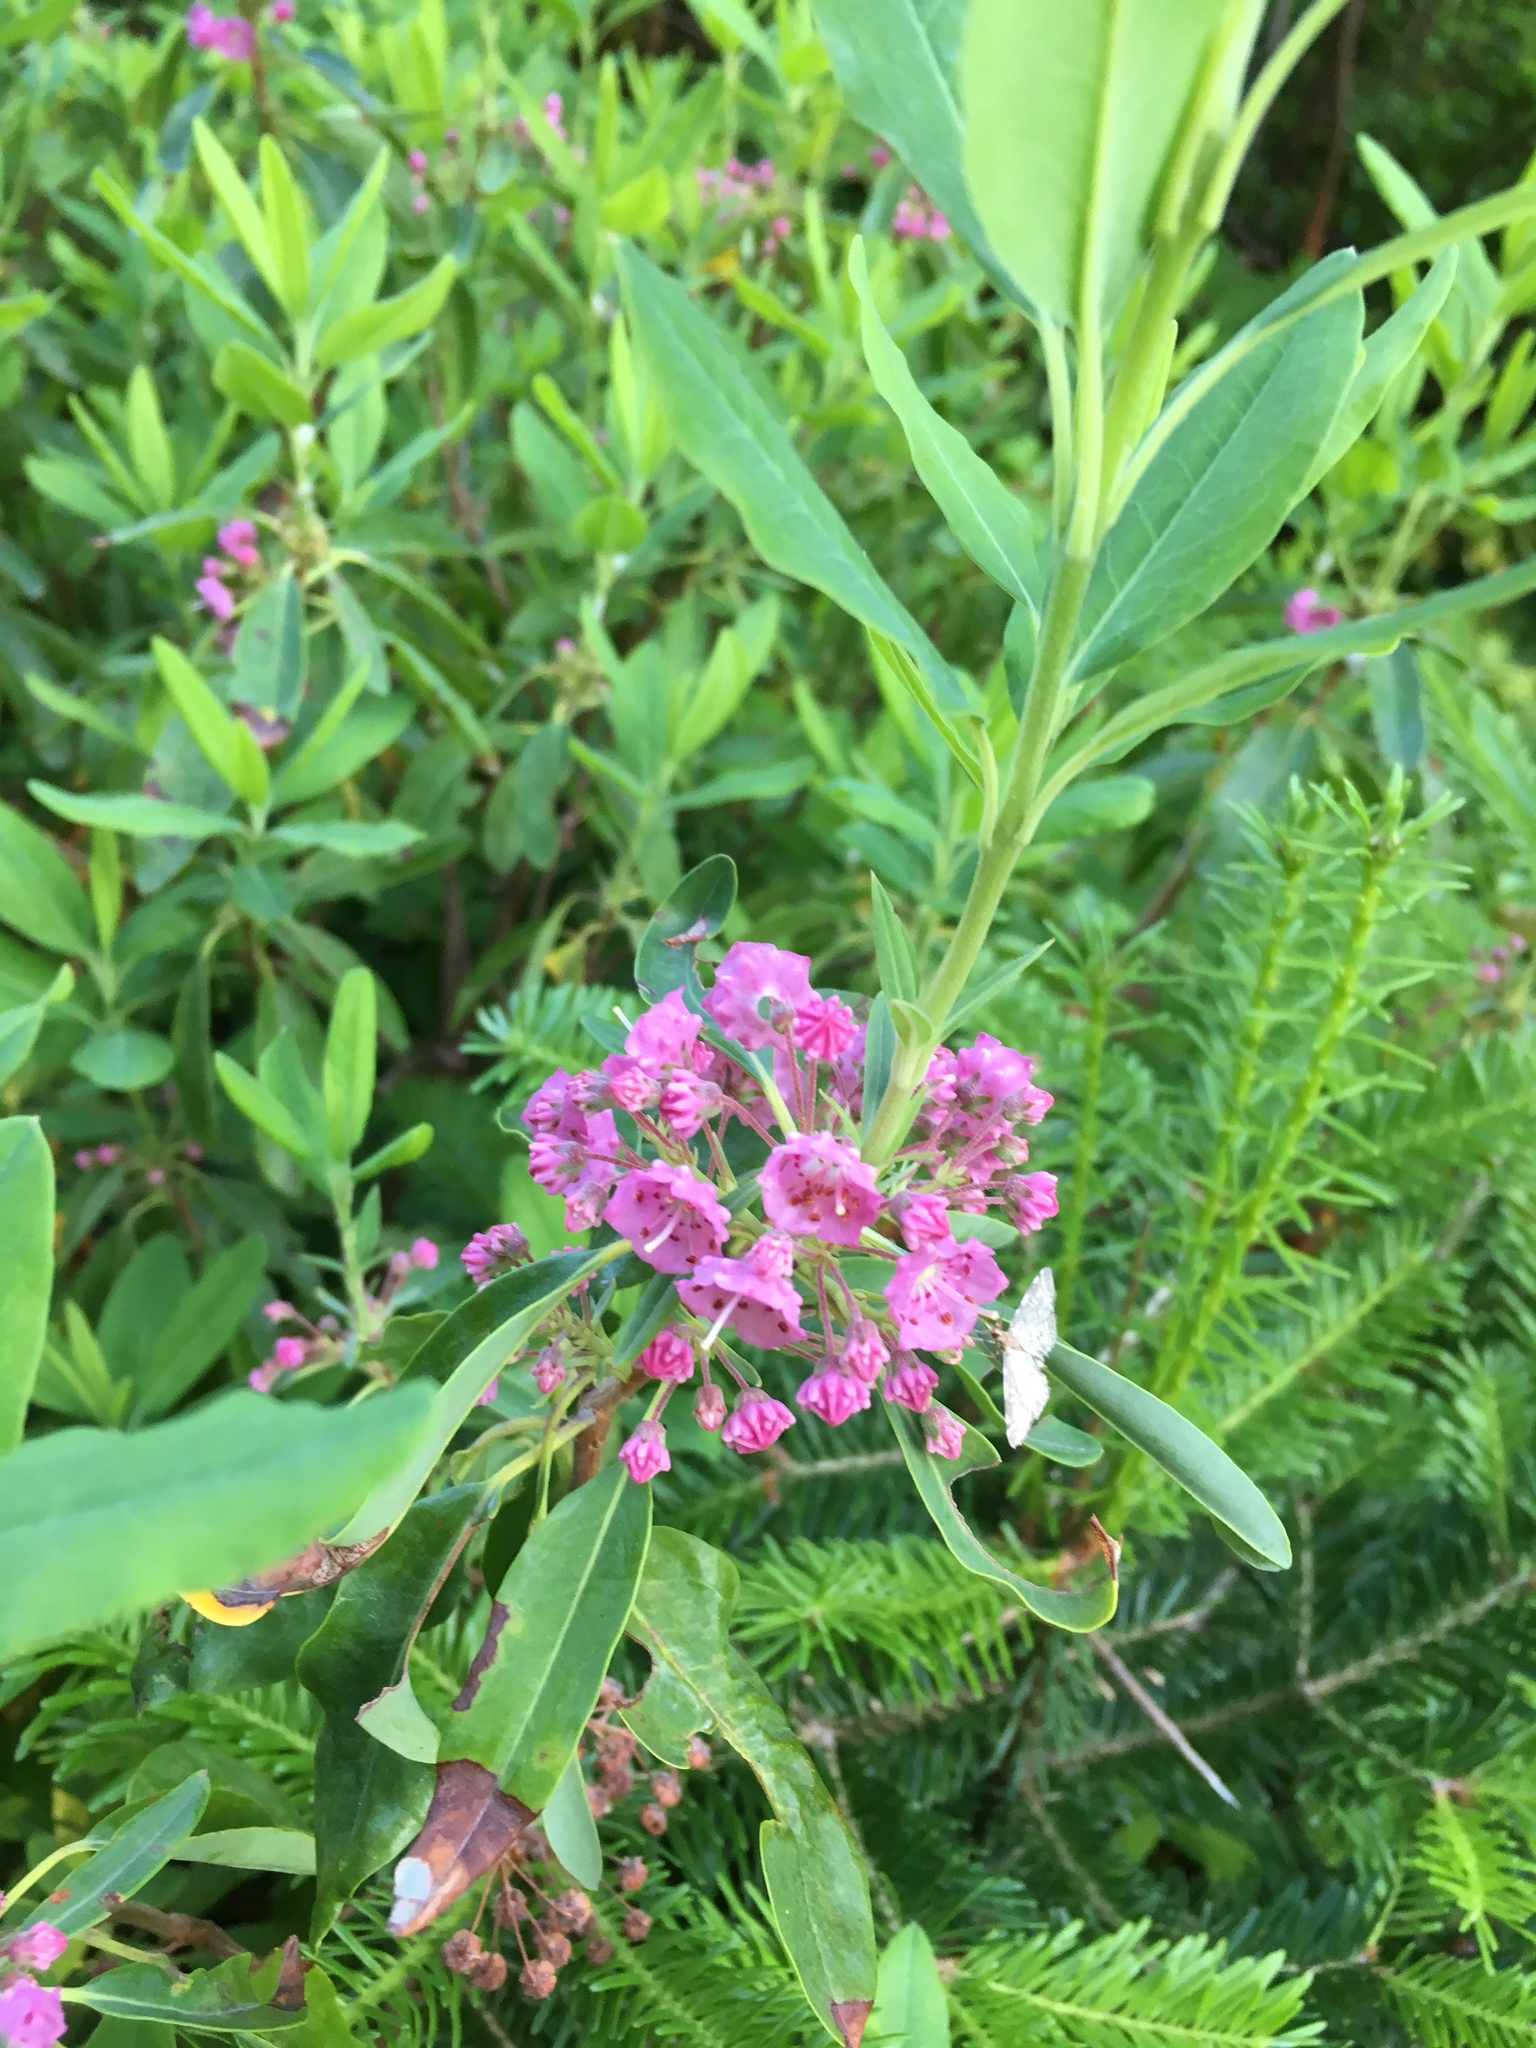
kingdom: Plantae
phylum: Tracheophyta
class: Magnoliopsida
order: Ericales
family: Ericaceae
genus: Kalmia
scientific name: Kalmia angustifolia
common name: Sheep-laurel
